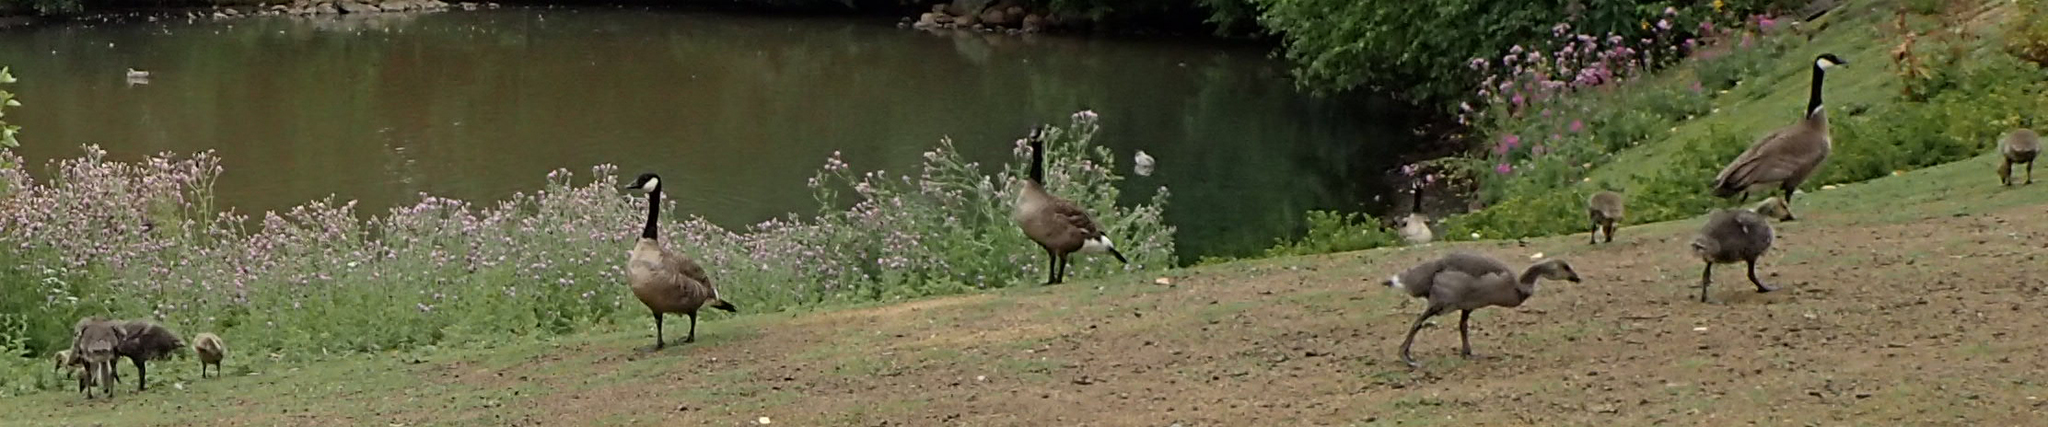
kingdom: Animalia
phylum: Chordata
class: Aves
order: Anseriformes
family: Anatidae
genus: Branta
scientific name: Branta canadensis
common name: Canada goose
